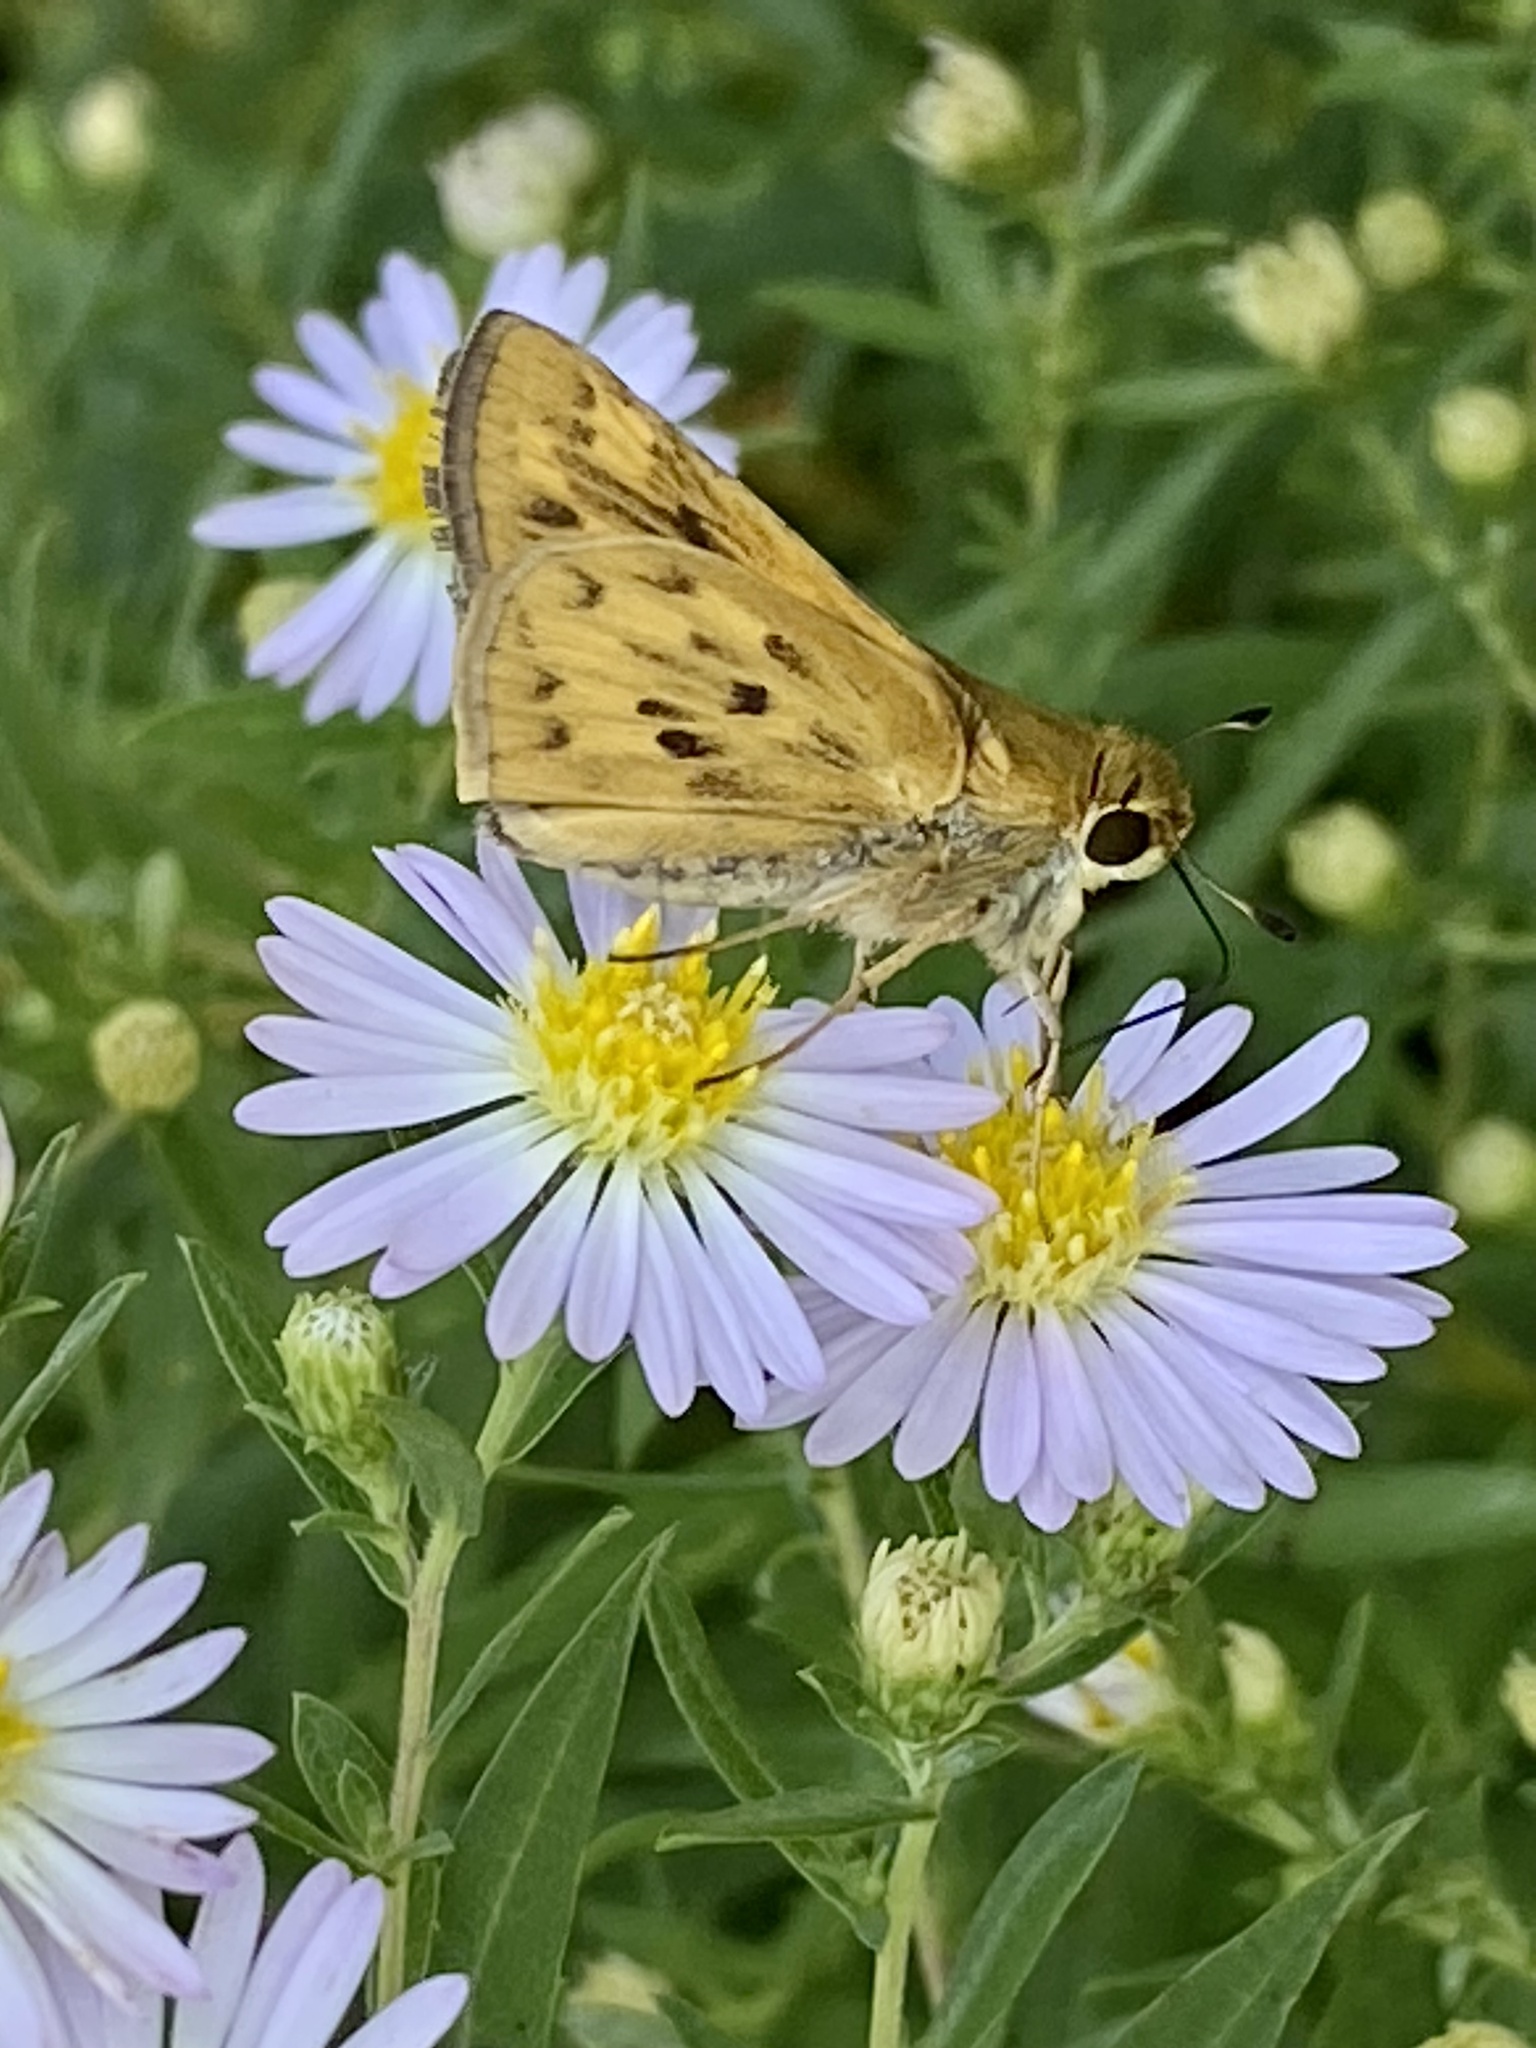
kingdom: Animalia
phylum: Arthropoda
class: Insecta
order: Lepidoptera
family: Hesperiidae
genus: Hylephila
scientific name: Hylephila phyleus
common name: Fiery skipper
